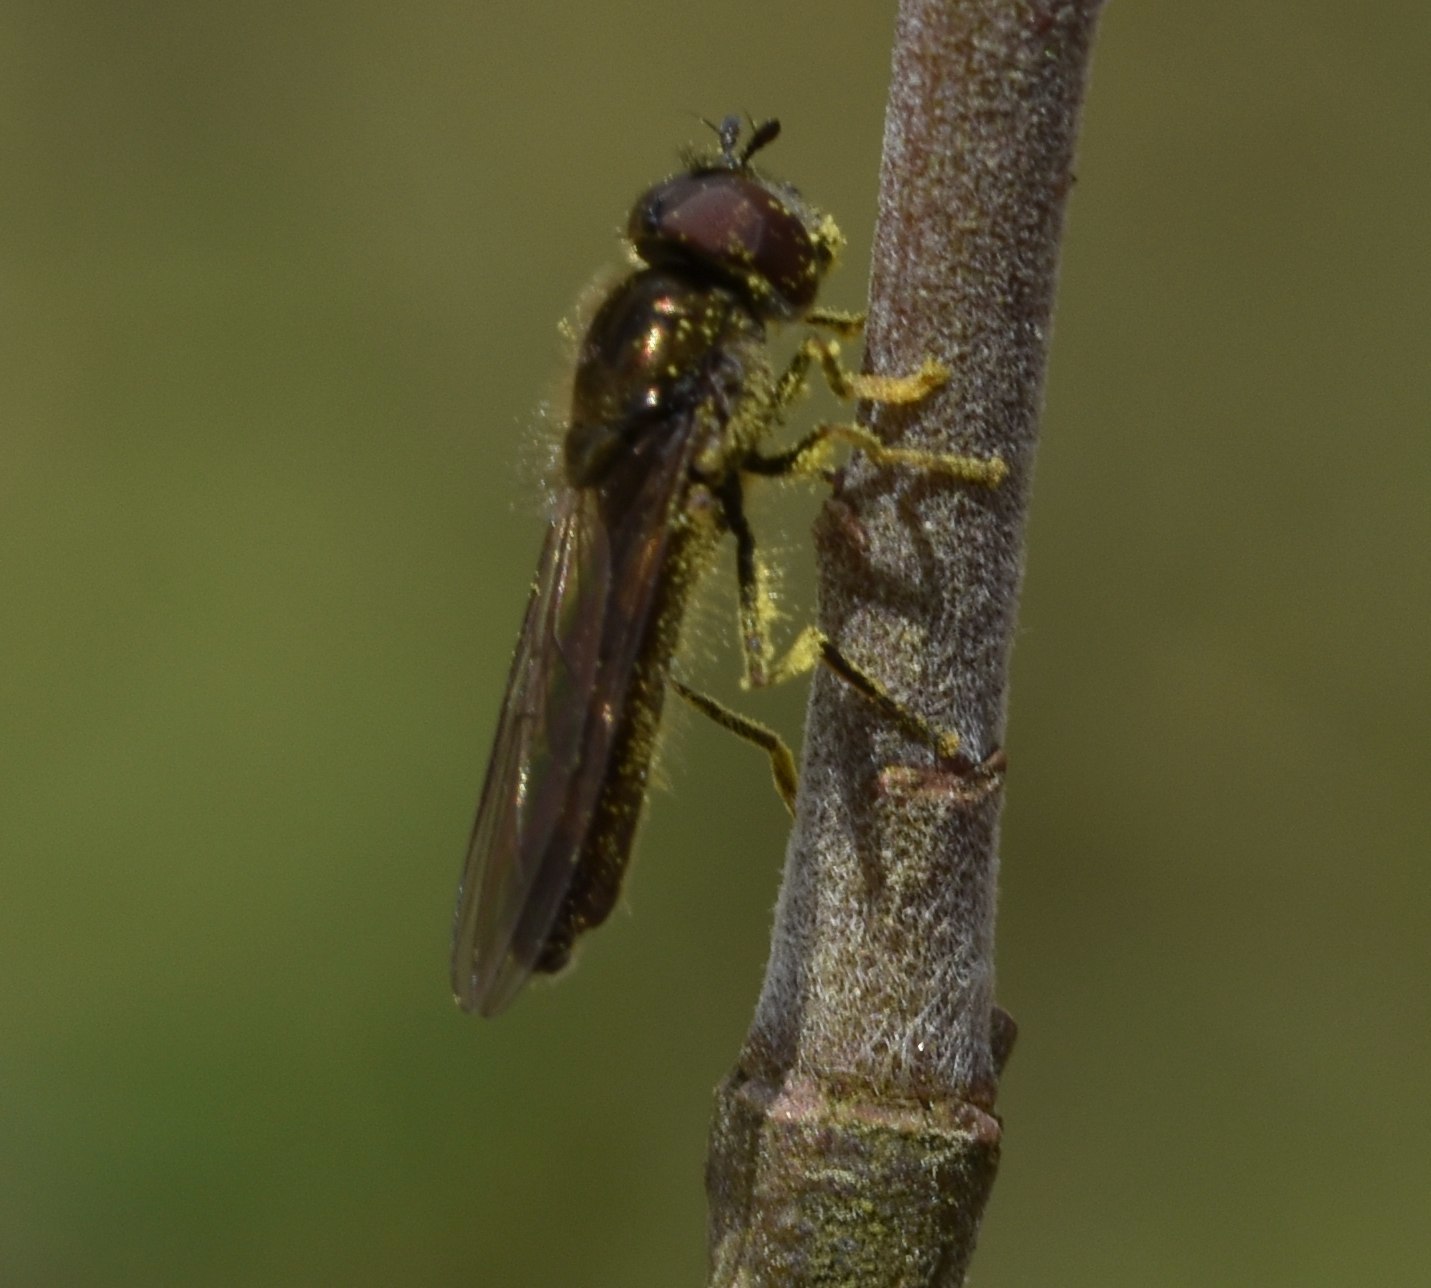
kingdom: Animalia
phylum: Arthropoda
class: Insecta
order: Diptera
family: Syrphidae
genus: Platycheirus
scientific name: Platycheirus
